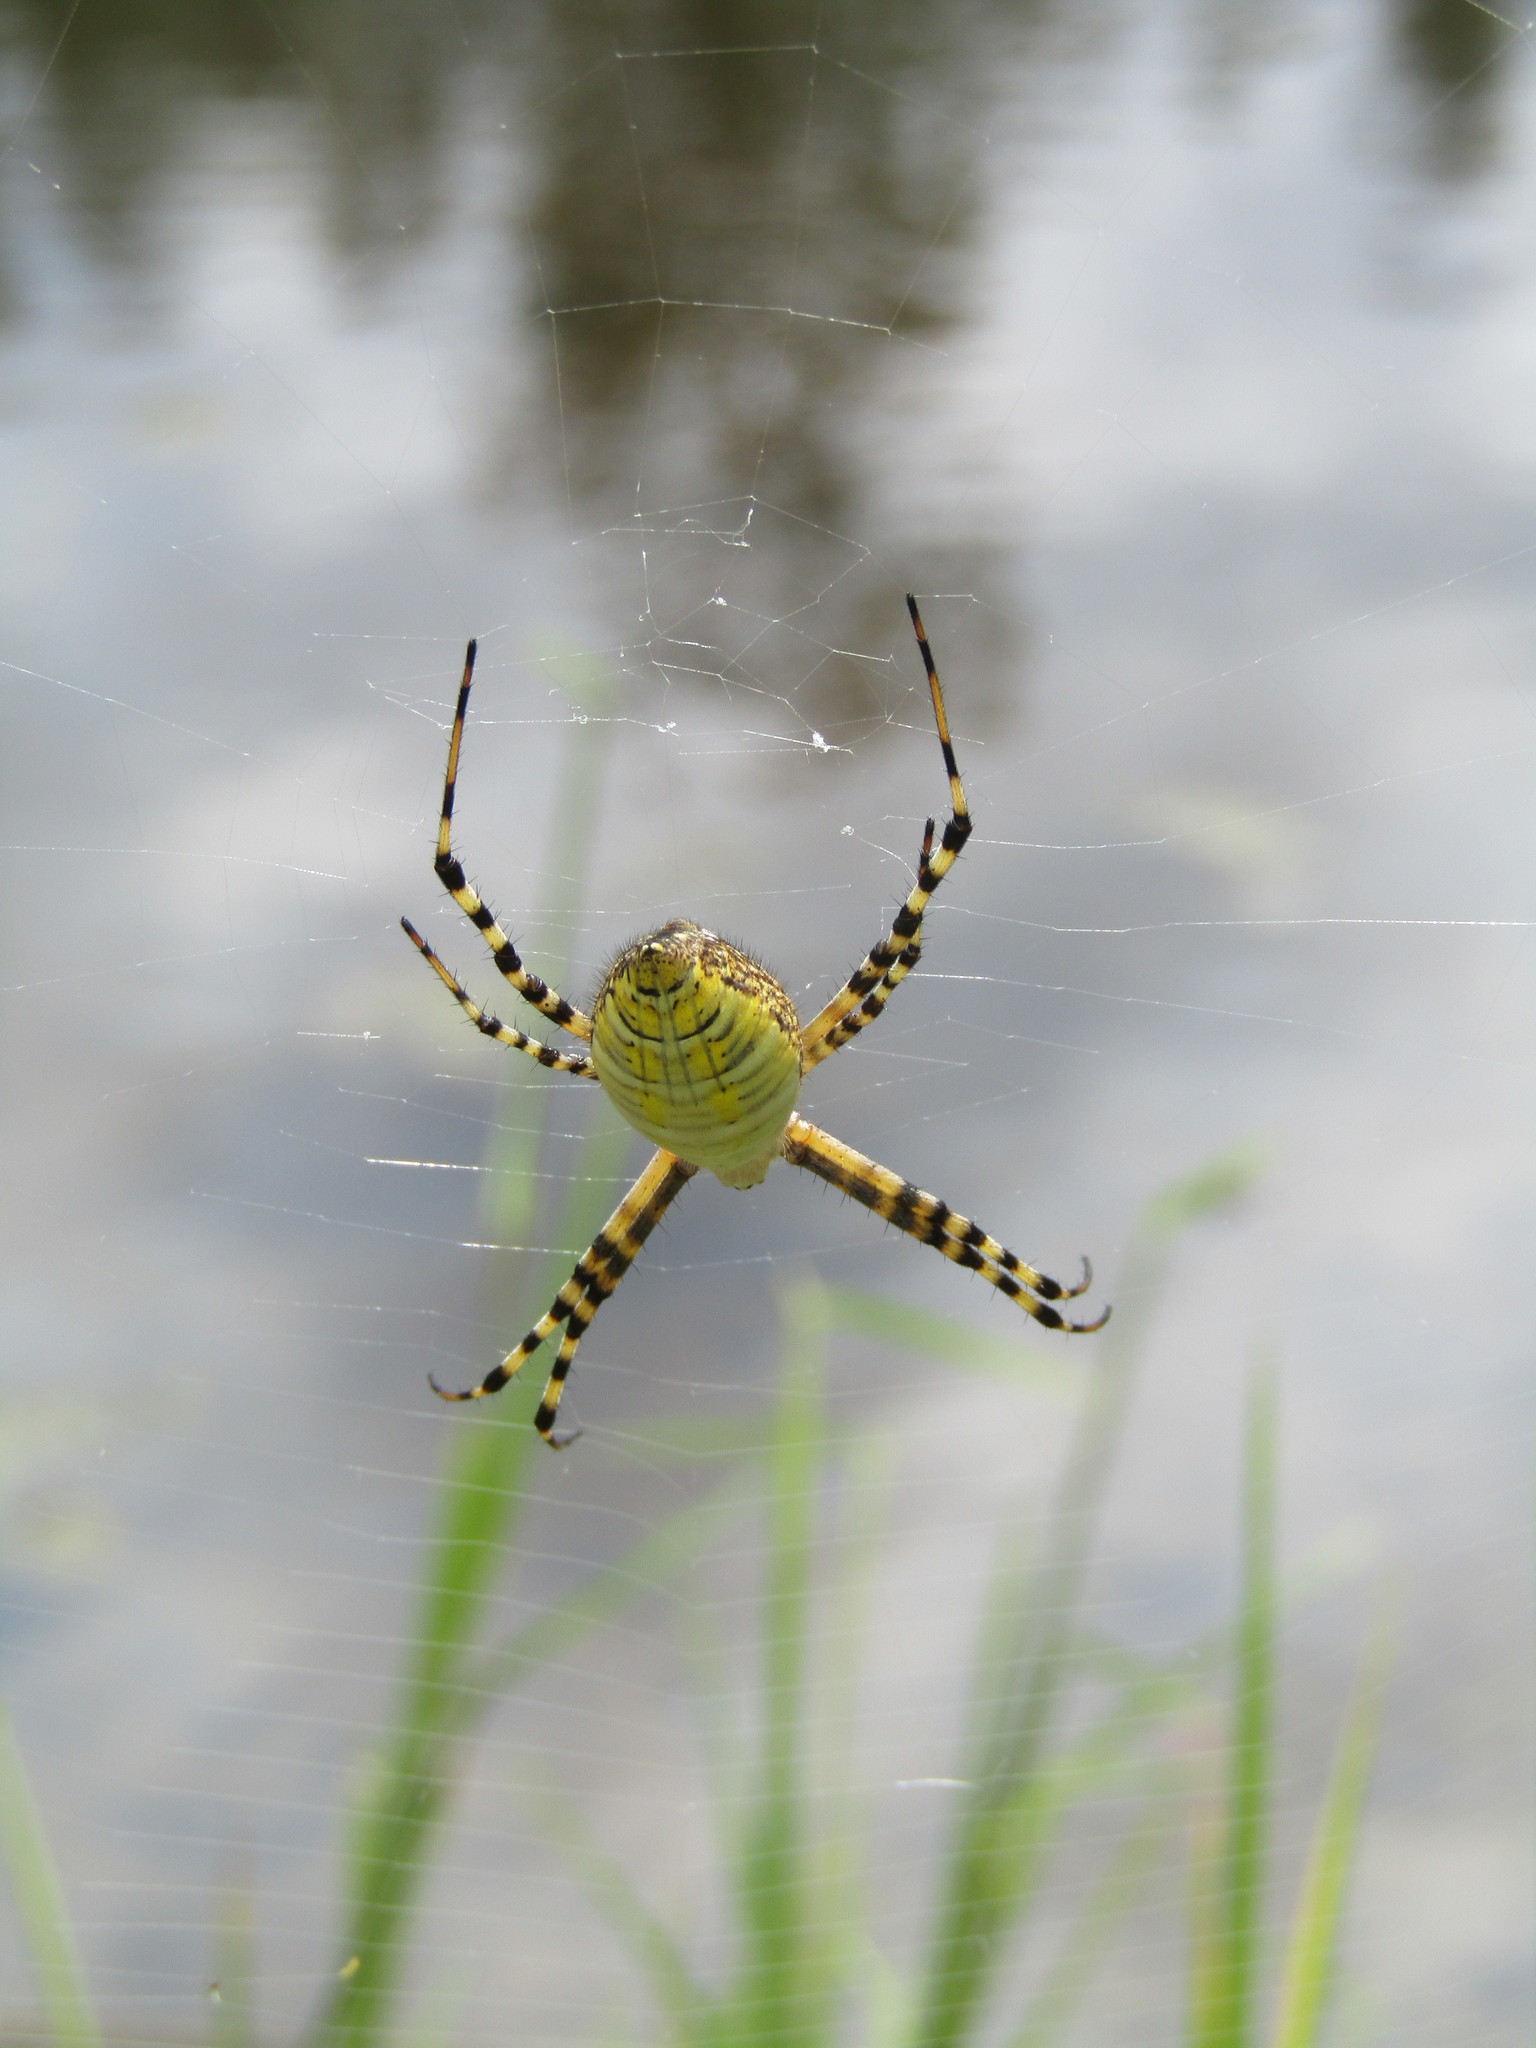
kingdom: Animalia
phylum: Arthropoda
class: Arachnida
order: Araneae
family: Araneidae
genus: Argiope
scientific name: Argiope trifasciata
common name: Banded garden spider
